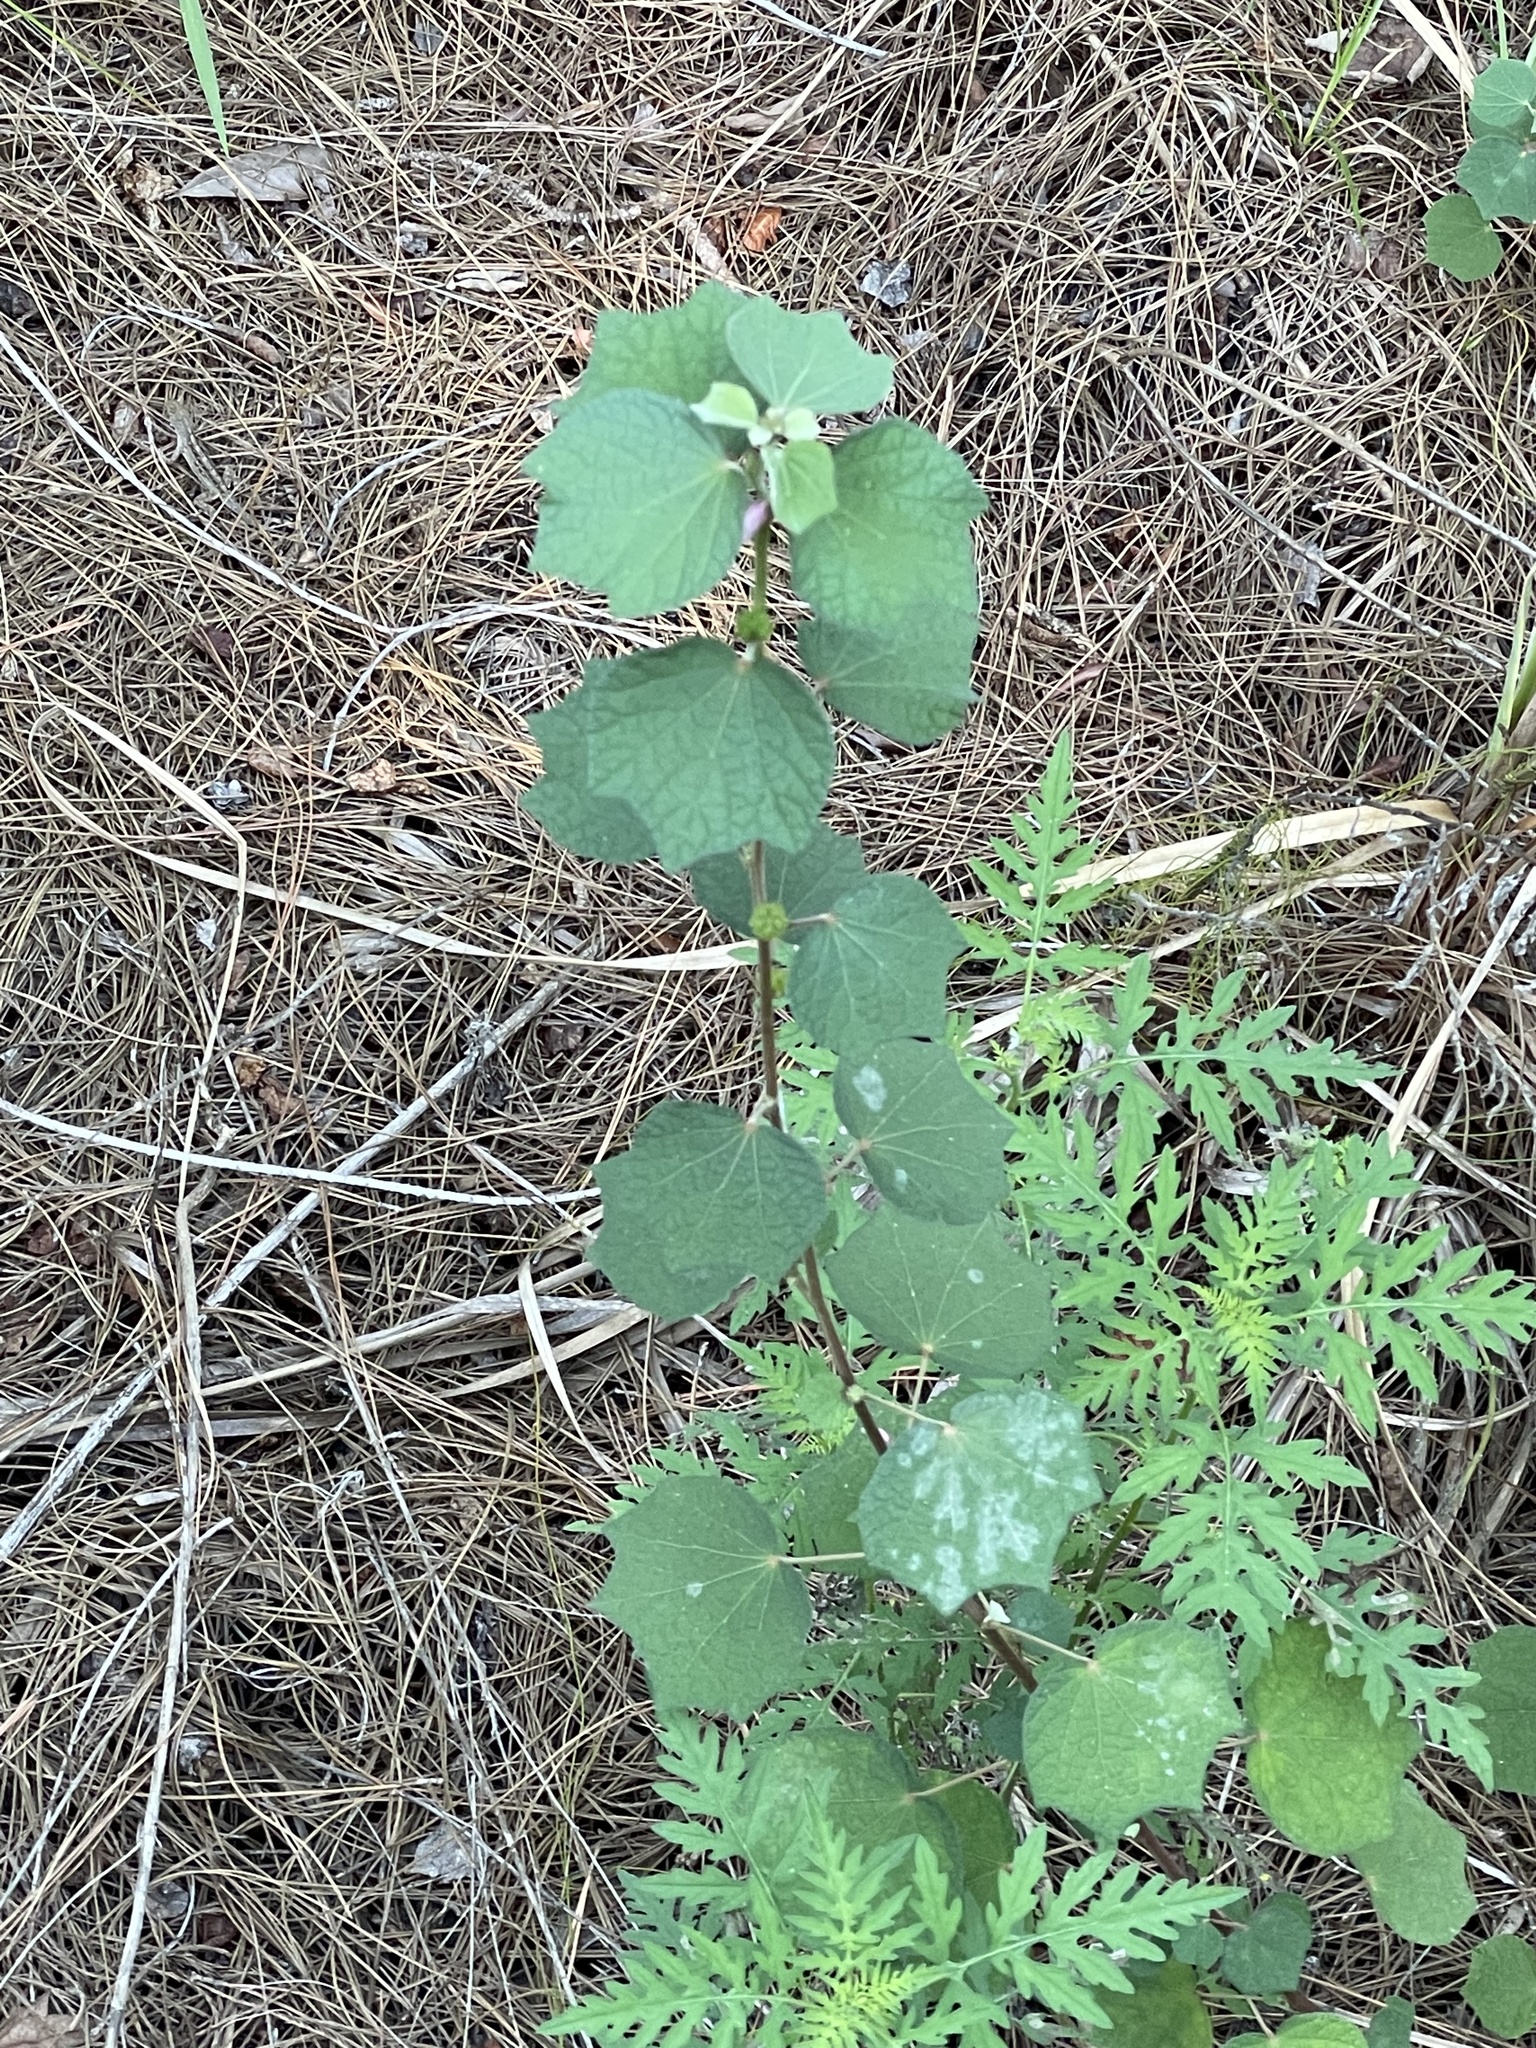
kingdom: Plantae
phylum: Tracheophyta
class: Magnoliopsida
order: Malvales
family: Malvaceae
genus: Urena
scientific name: Urena lobata
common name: Caesarweed
